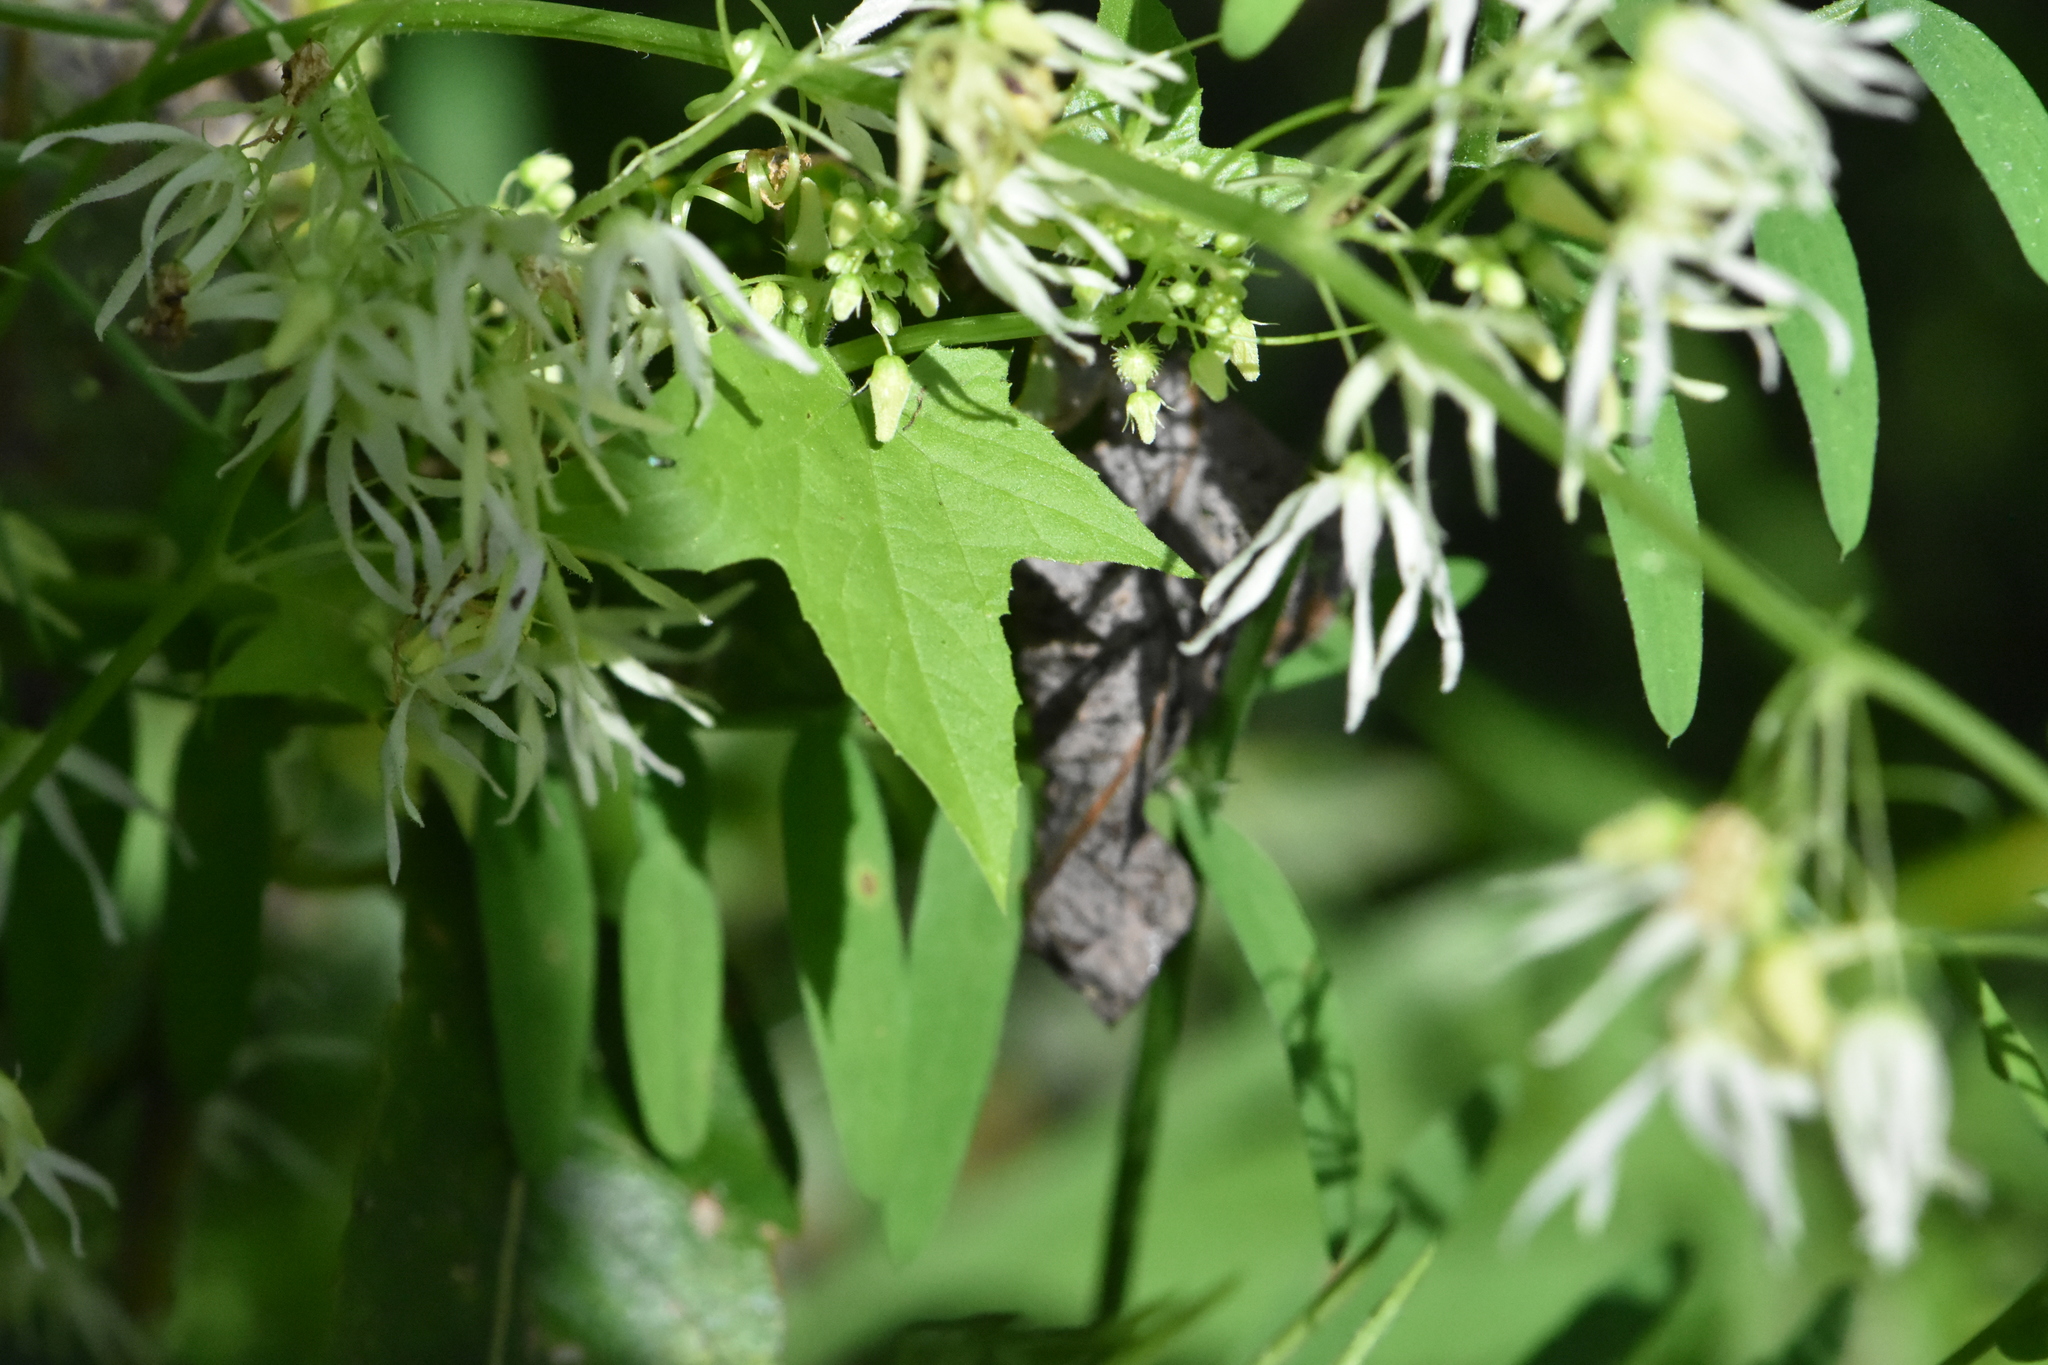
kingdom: Plantae
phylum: Tracheophyta
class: Magnoliopsida
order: Cucurbitales
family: Cucurbitaceae
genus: Echinocystis
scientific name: Echinocystis lobata
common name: Wild cucumber
